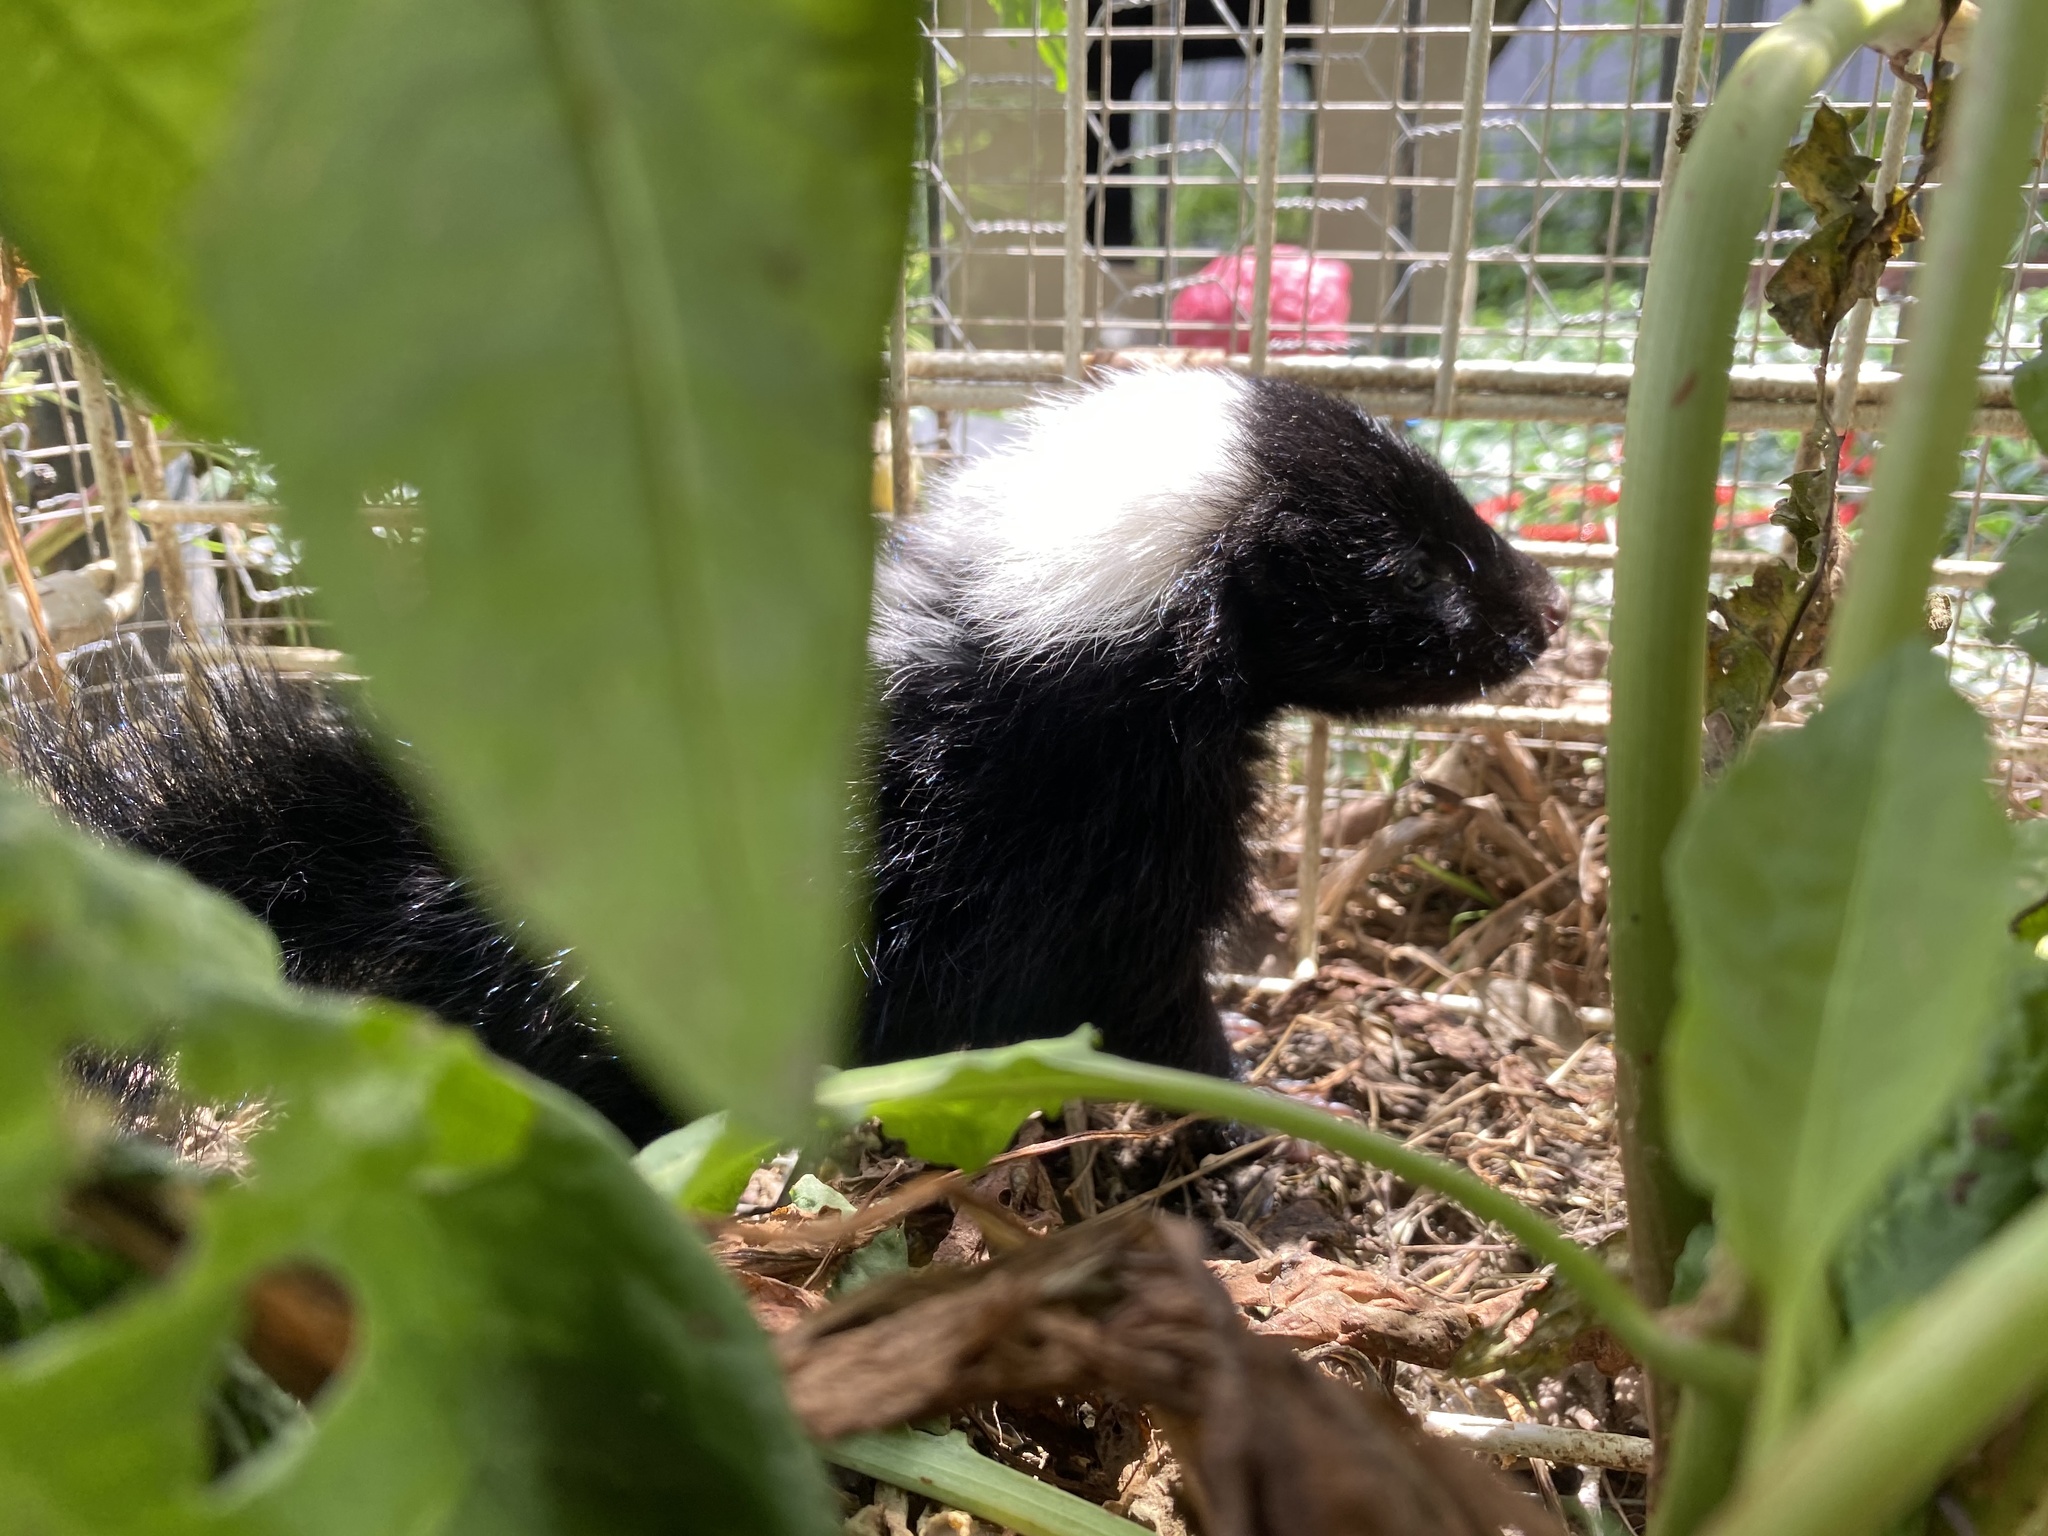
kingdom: Animalia
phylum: Chordata
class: Mammalia
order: Carnivora
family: Mephitidae
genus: Mephitis
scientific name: Mephitis mephitis
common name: Striped skunk
